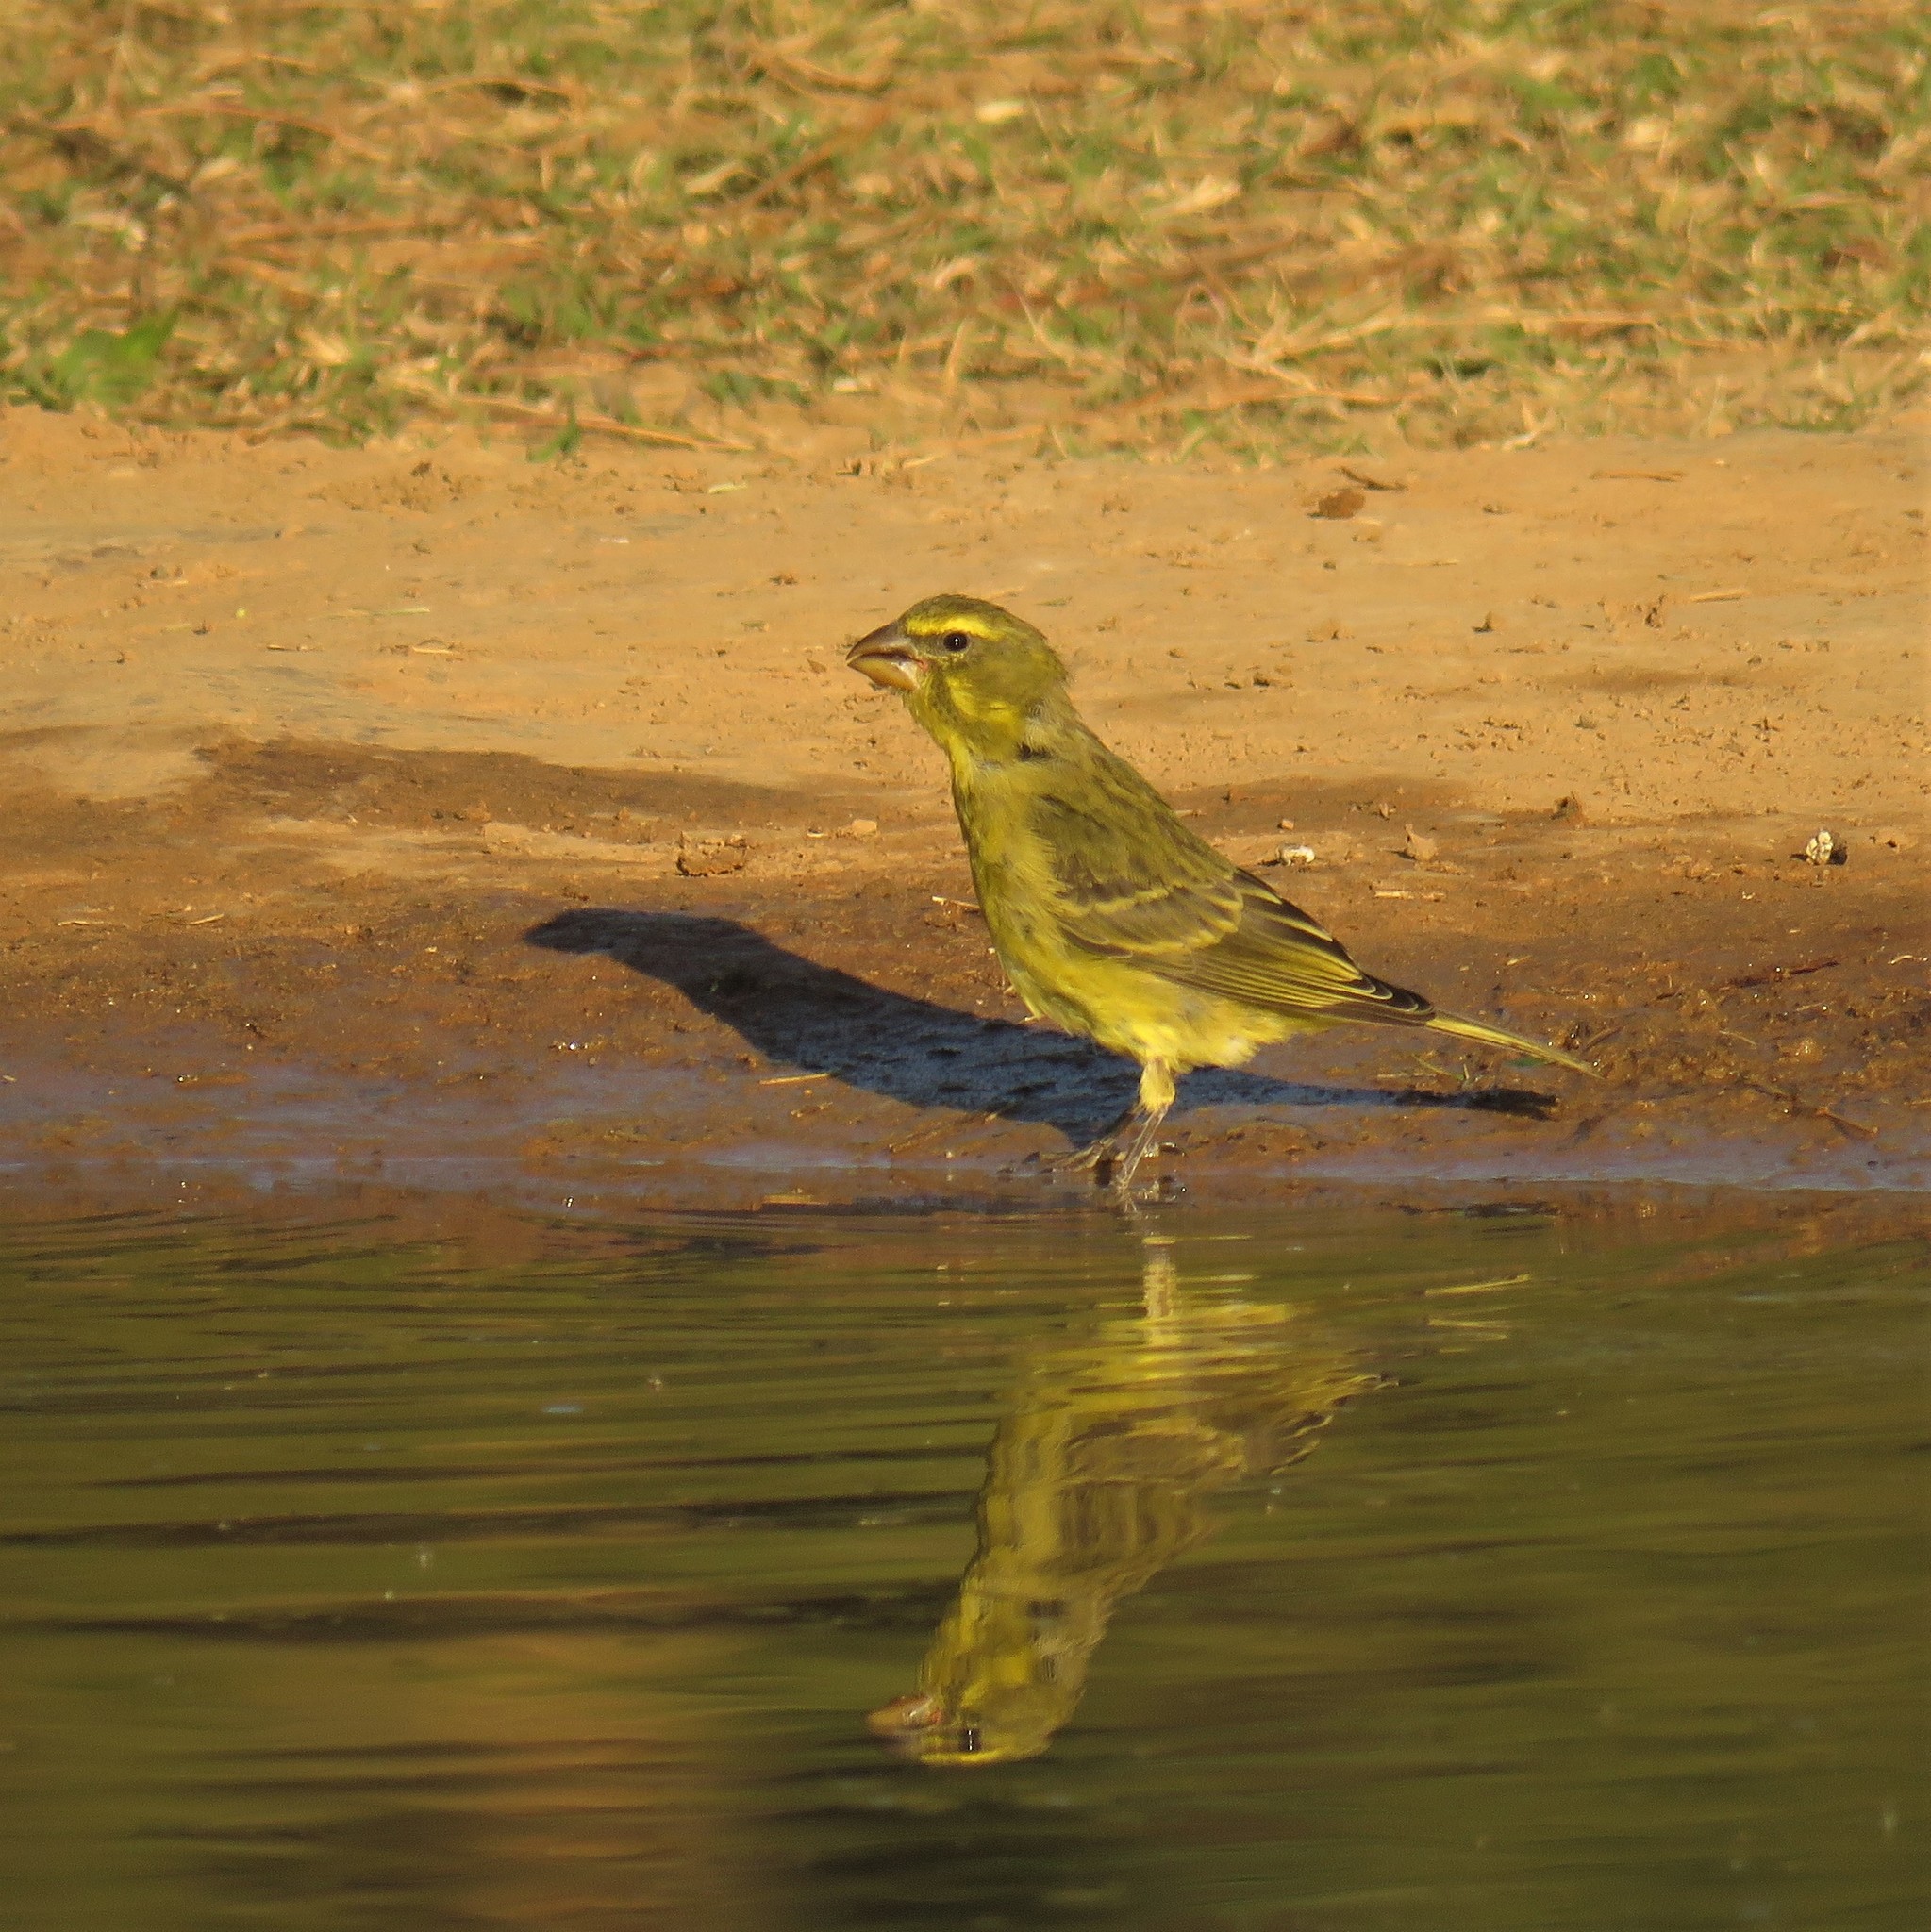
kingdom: Animalia
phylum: Chordata
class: Aves
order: Passeriformes
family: Fringillidae
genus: Crithagra
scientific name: Crithagra sulphurata
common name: Brimstone canary
